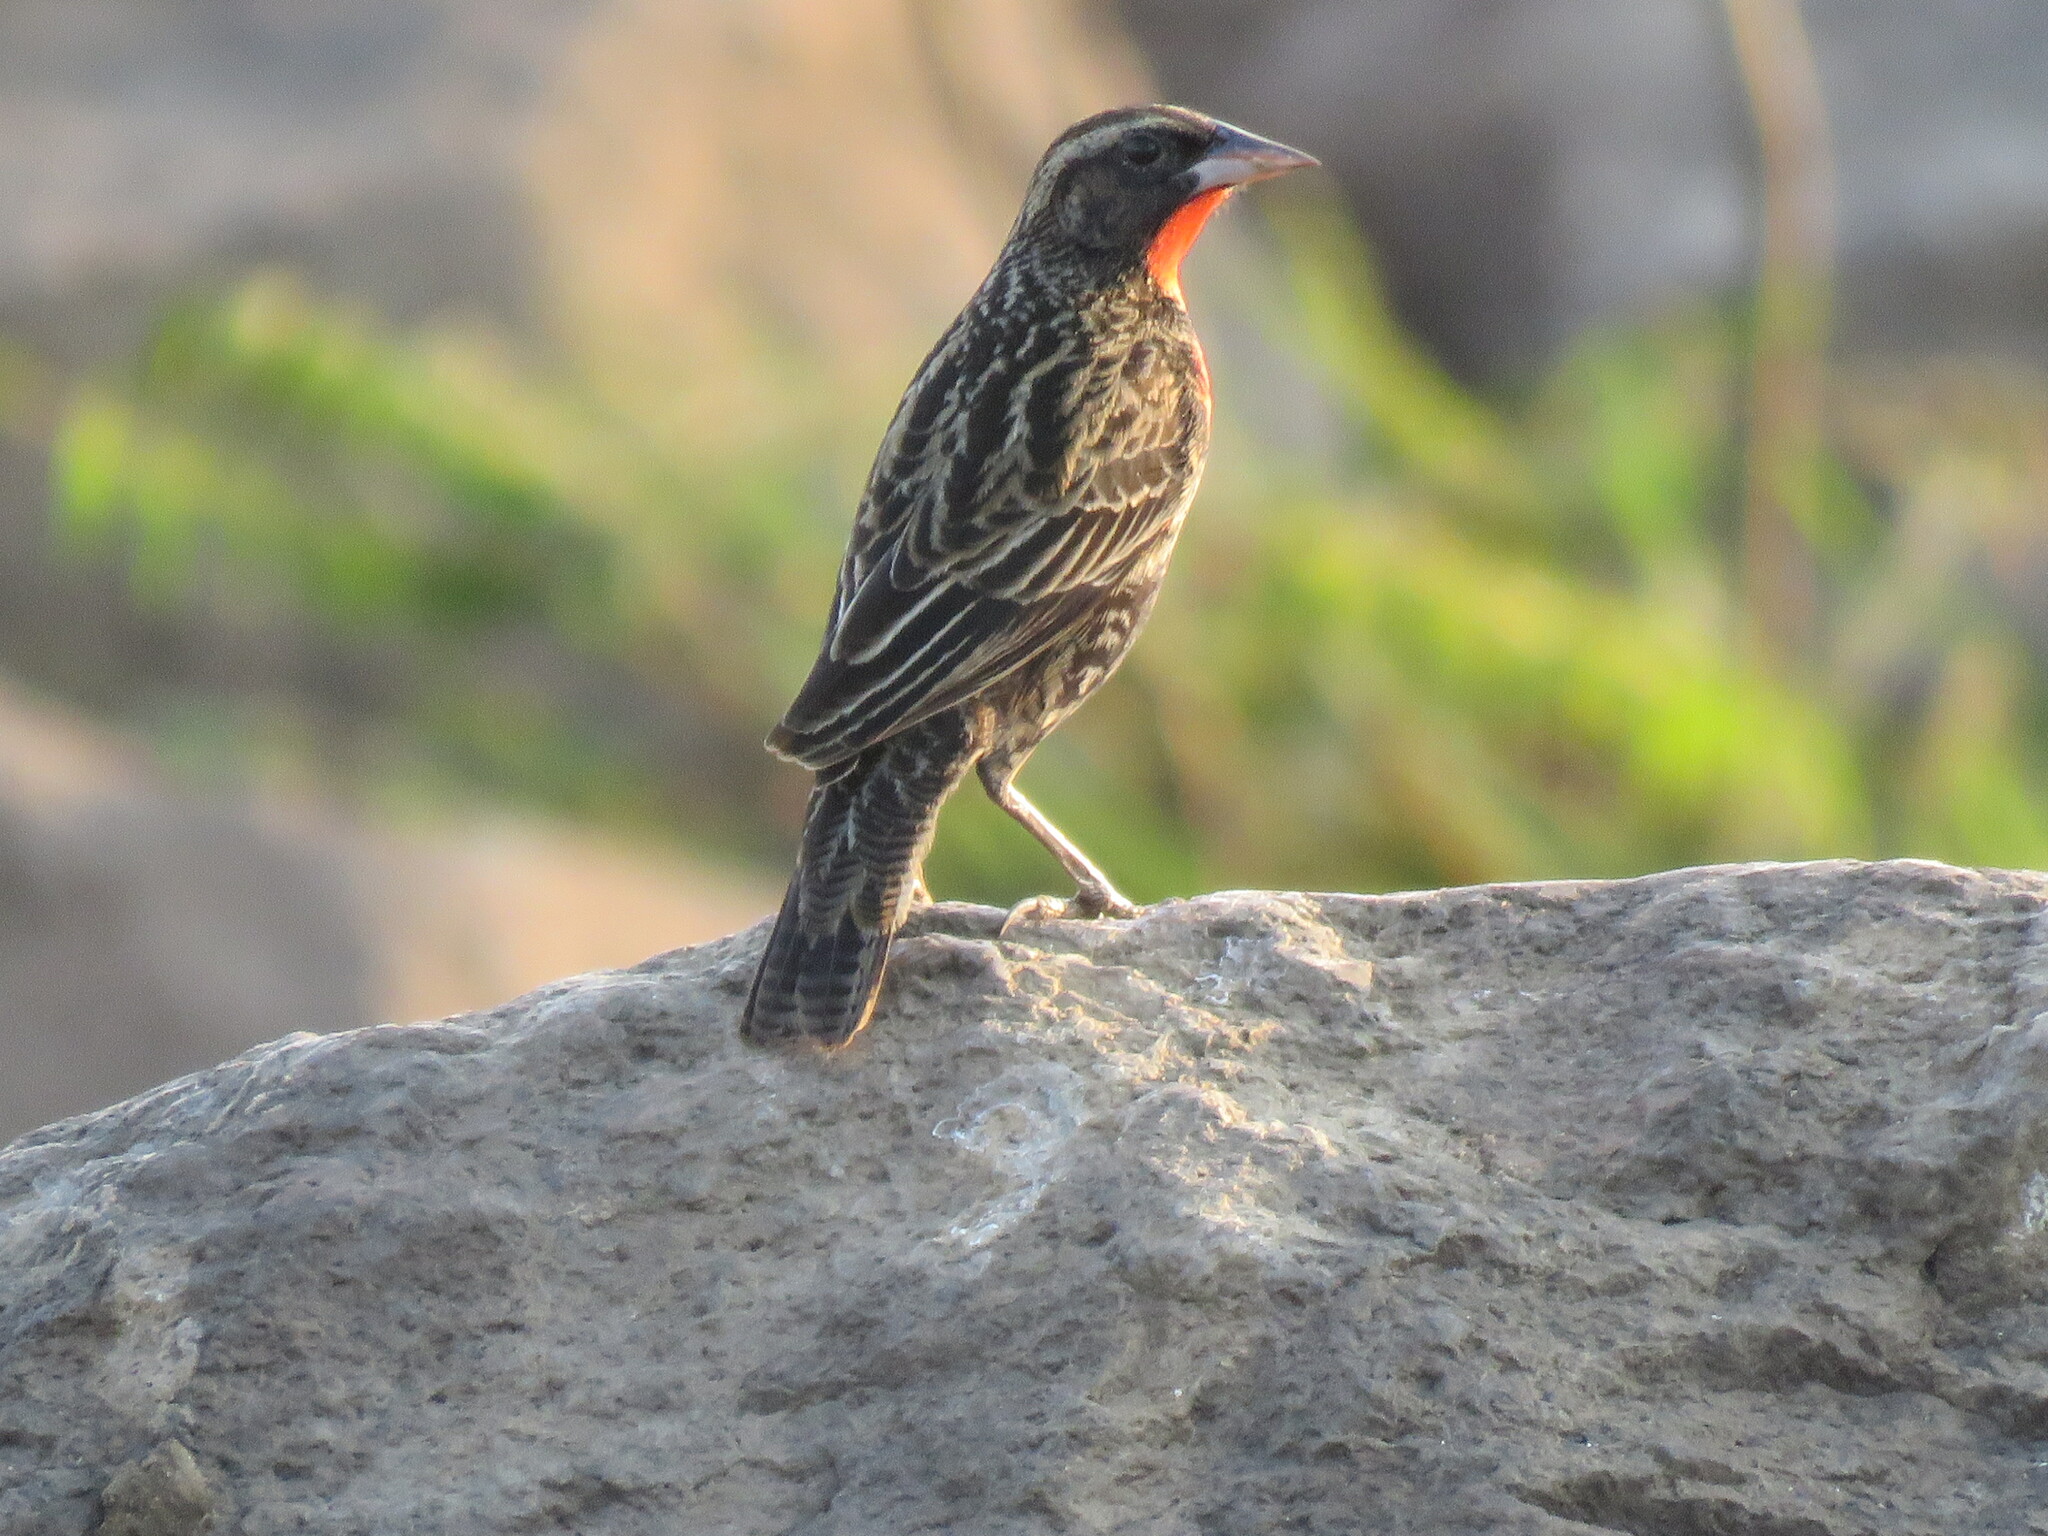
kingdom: Animalia
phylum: Chordata
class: Aves
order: Passeriformes
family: Icteridae
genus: Sturnella
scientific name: Sturnella superciliaris
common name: White-browed blackbird
